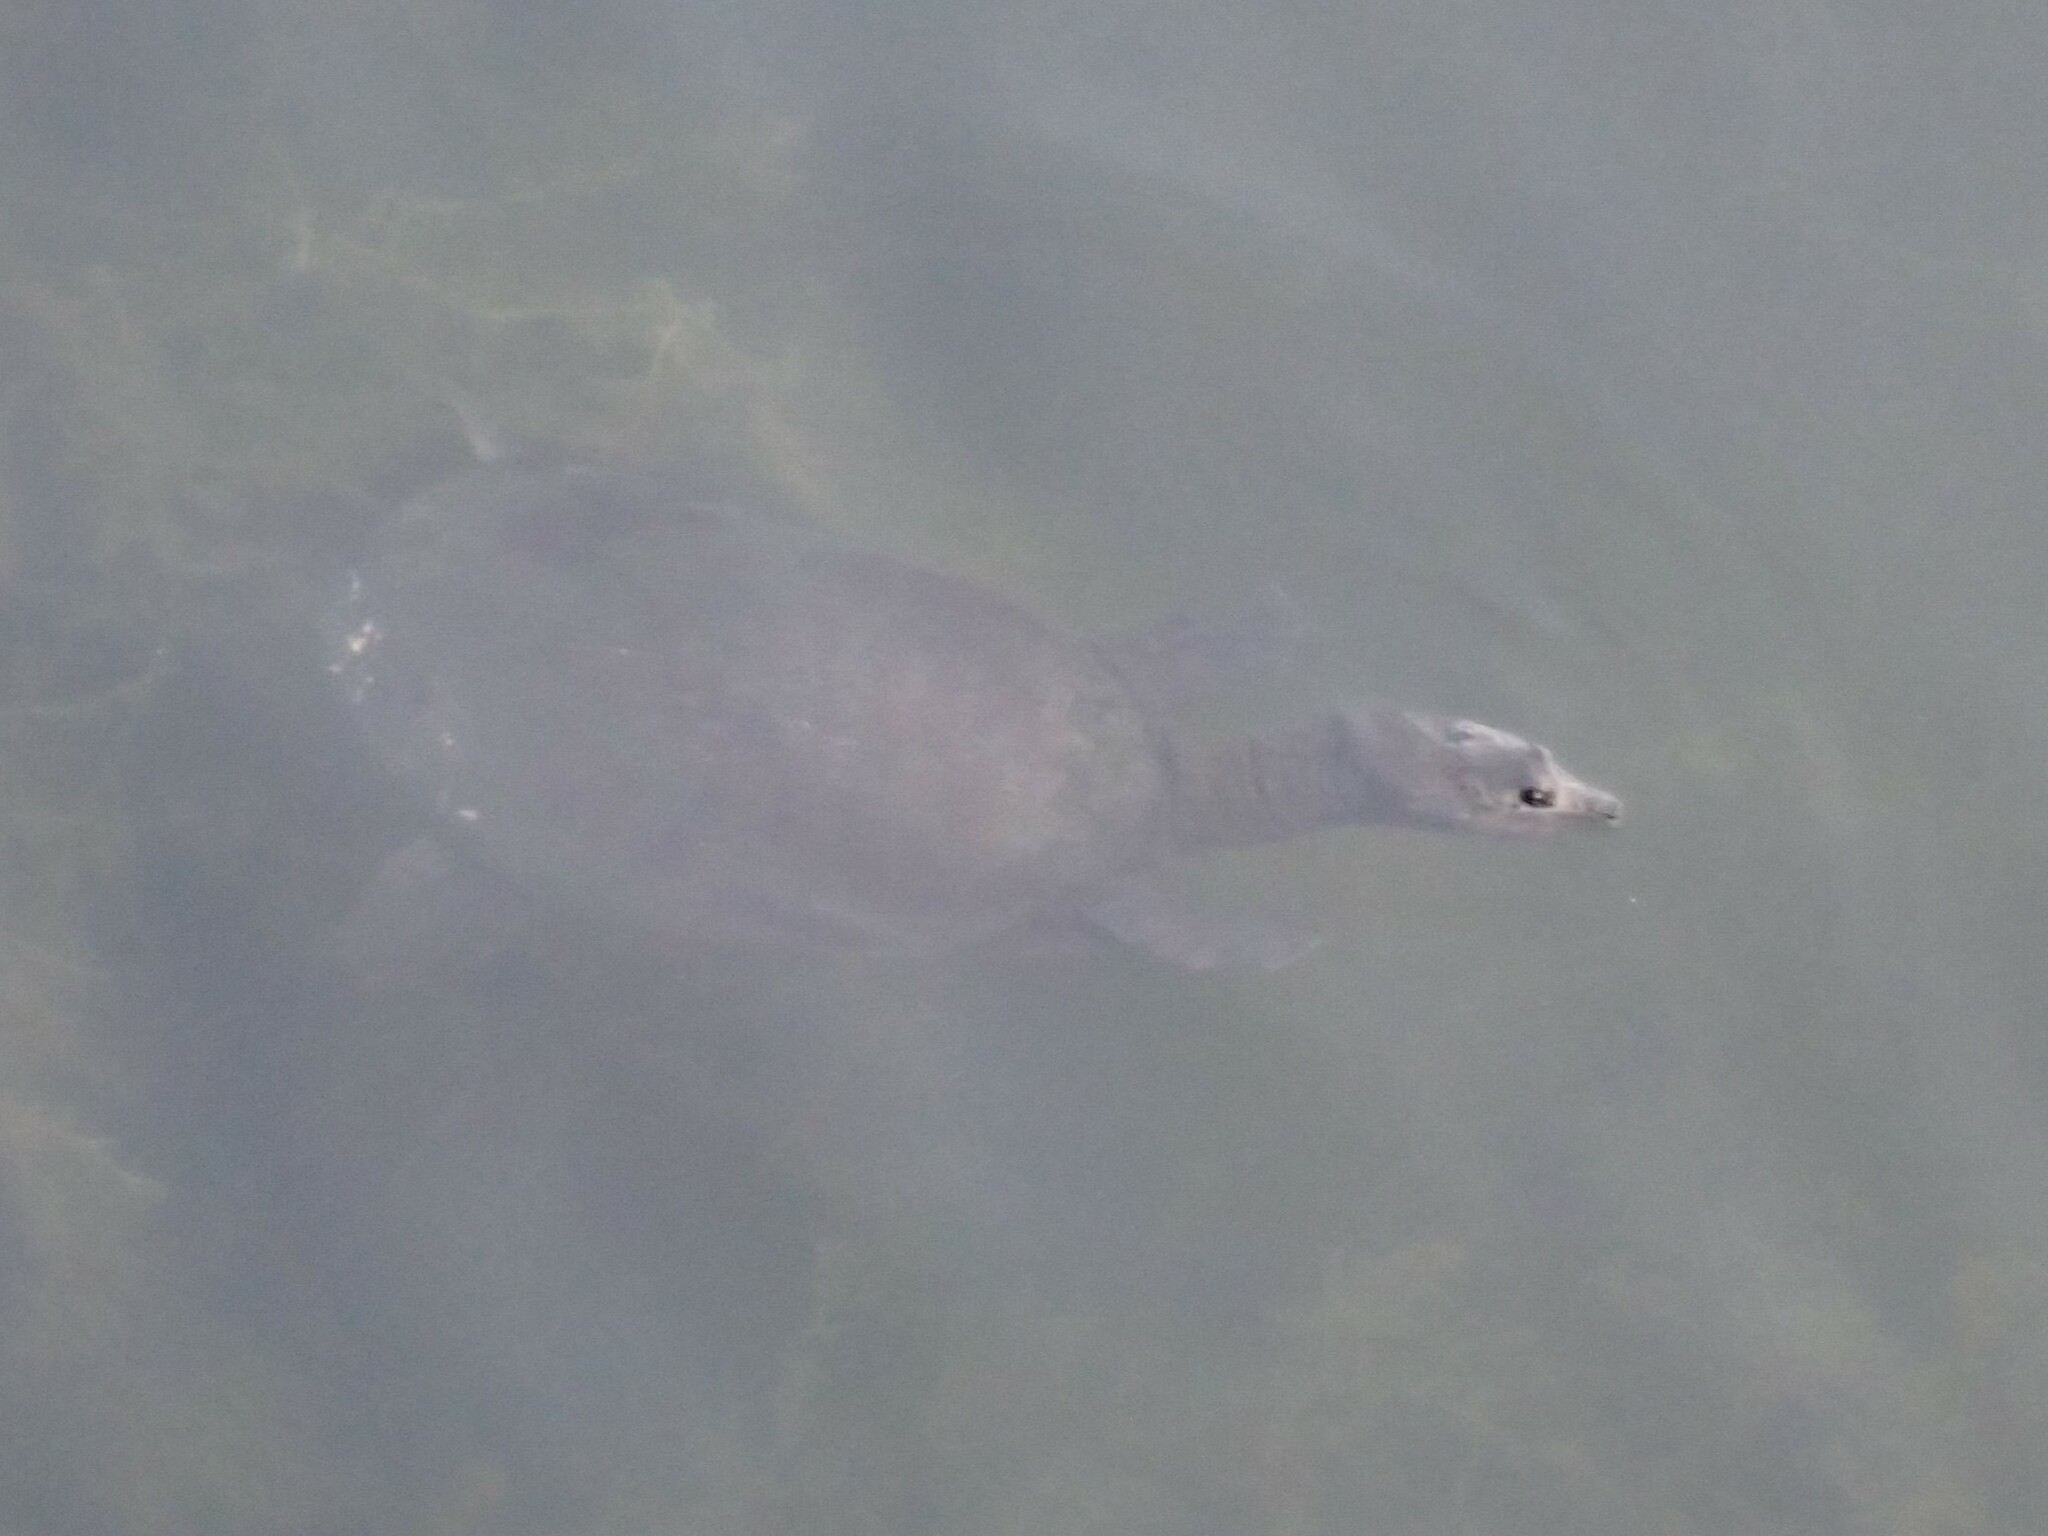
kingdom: Animalia
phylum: Chordata
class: Testudines
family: Trionychidae
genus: Apalone
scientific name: Apalone ferox
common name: Florida softshell turtle
